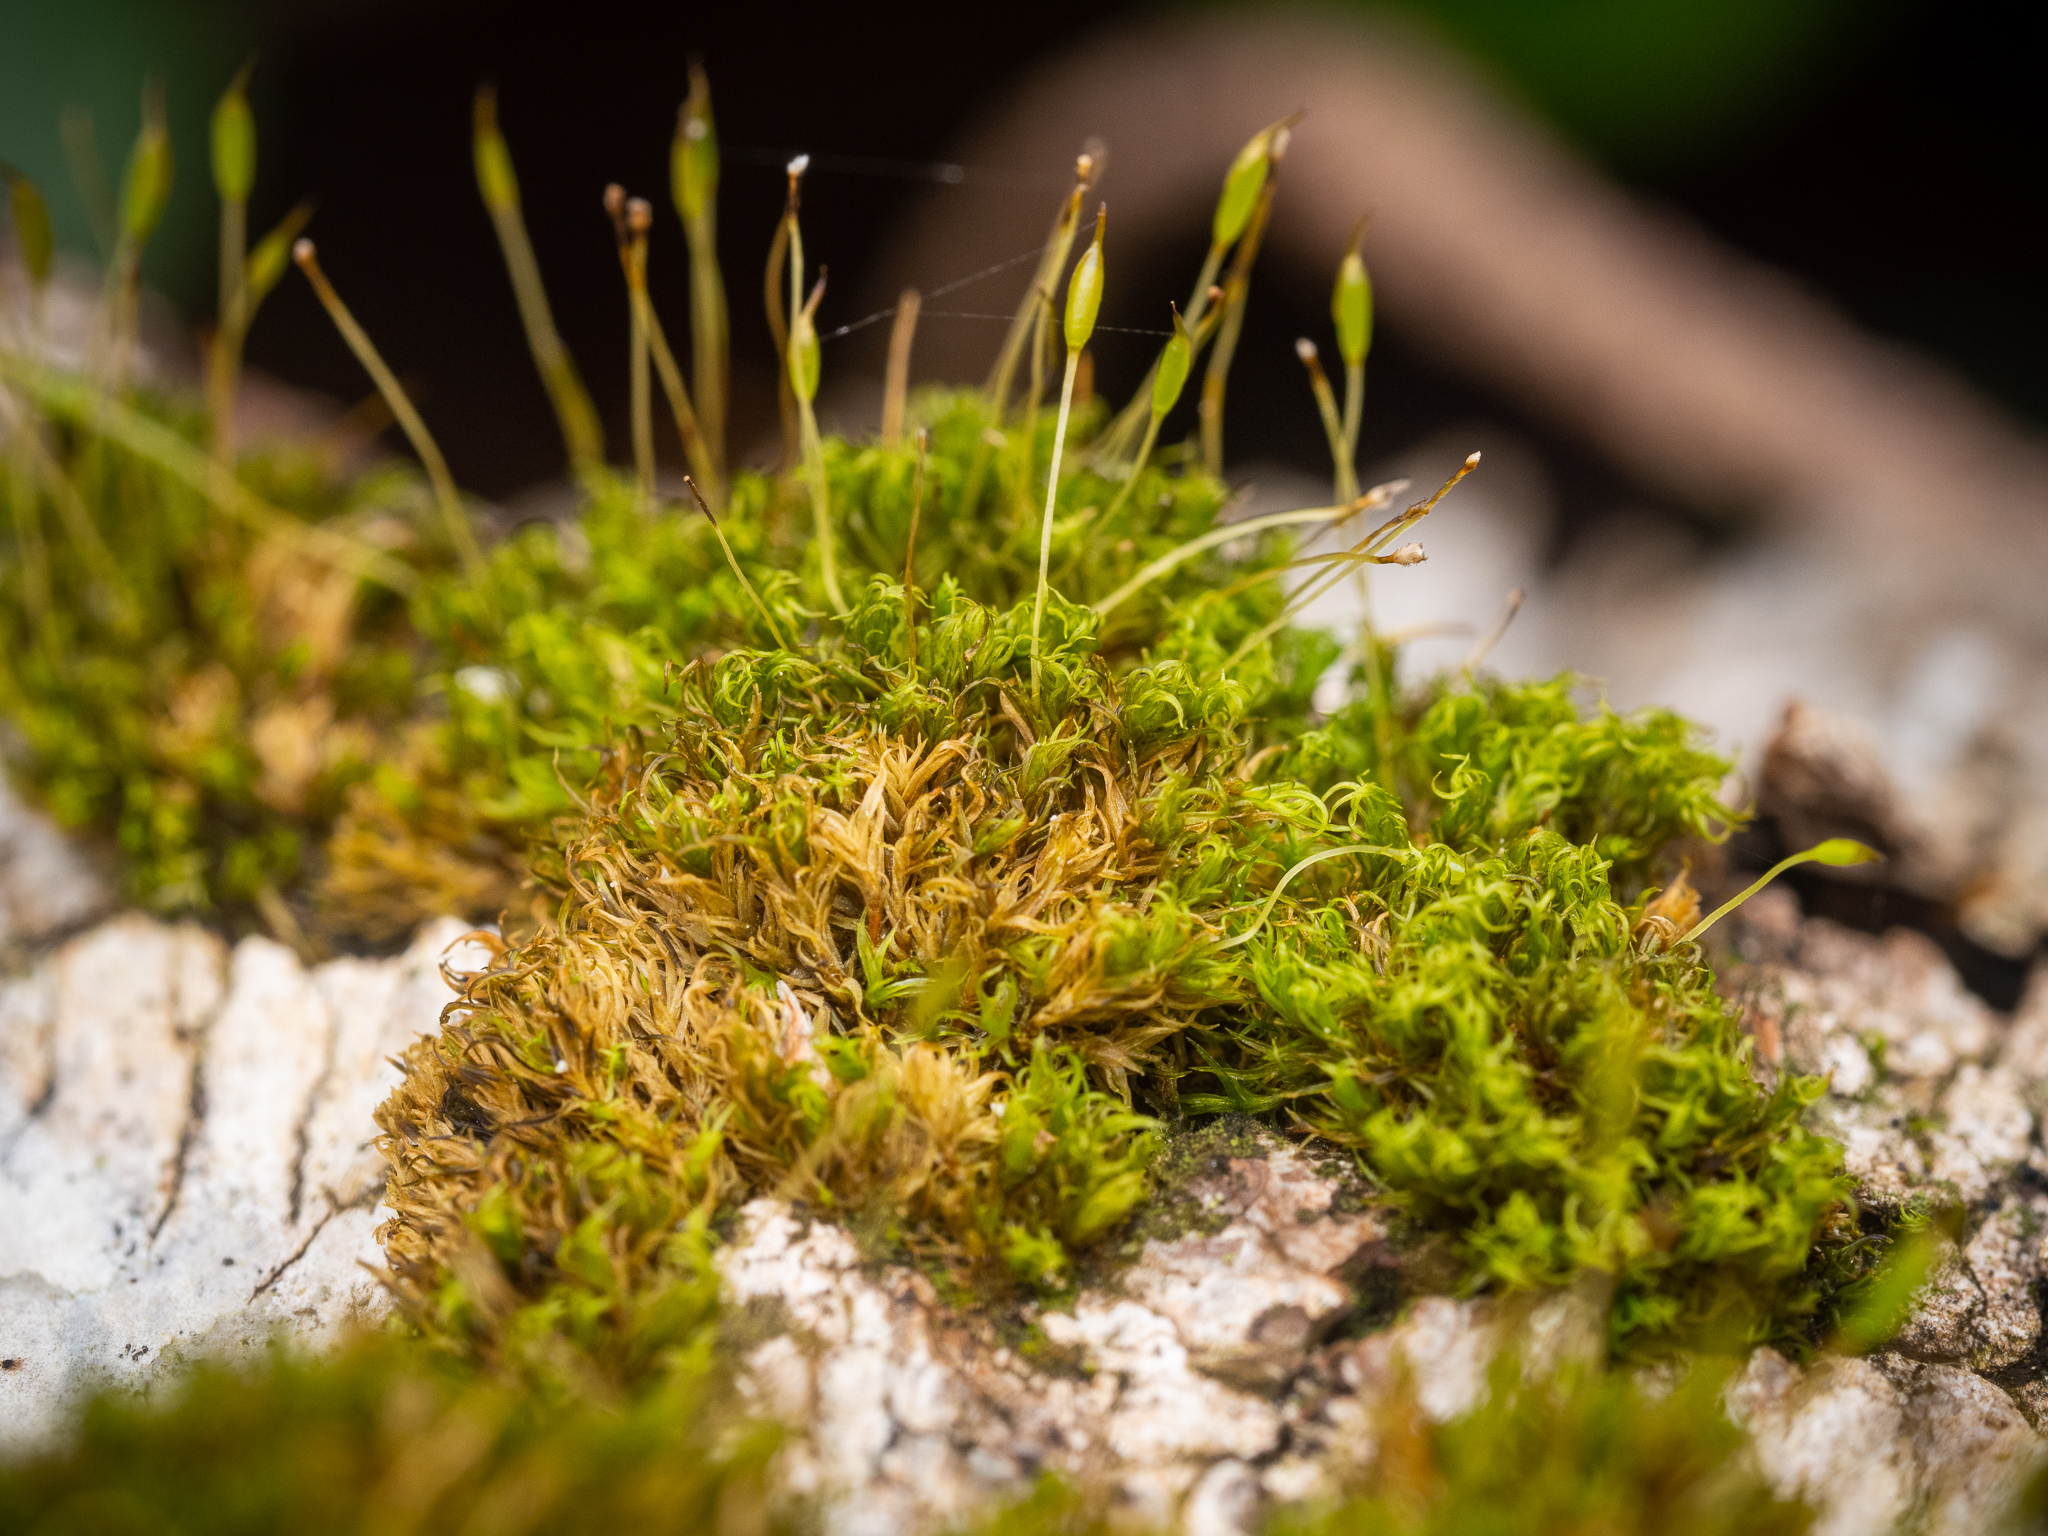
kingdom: Plantae
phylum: Bryophyta
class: Bryopsida
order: Dicranales
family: Rhabdoweisiaceae
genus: Dicranoweisia
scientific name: Dicranoweisia cirrata
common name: Common pincushion
